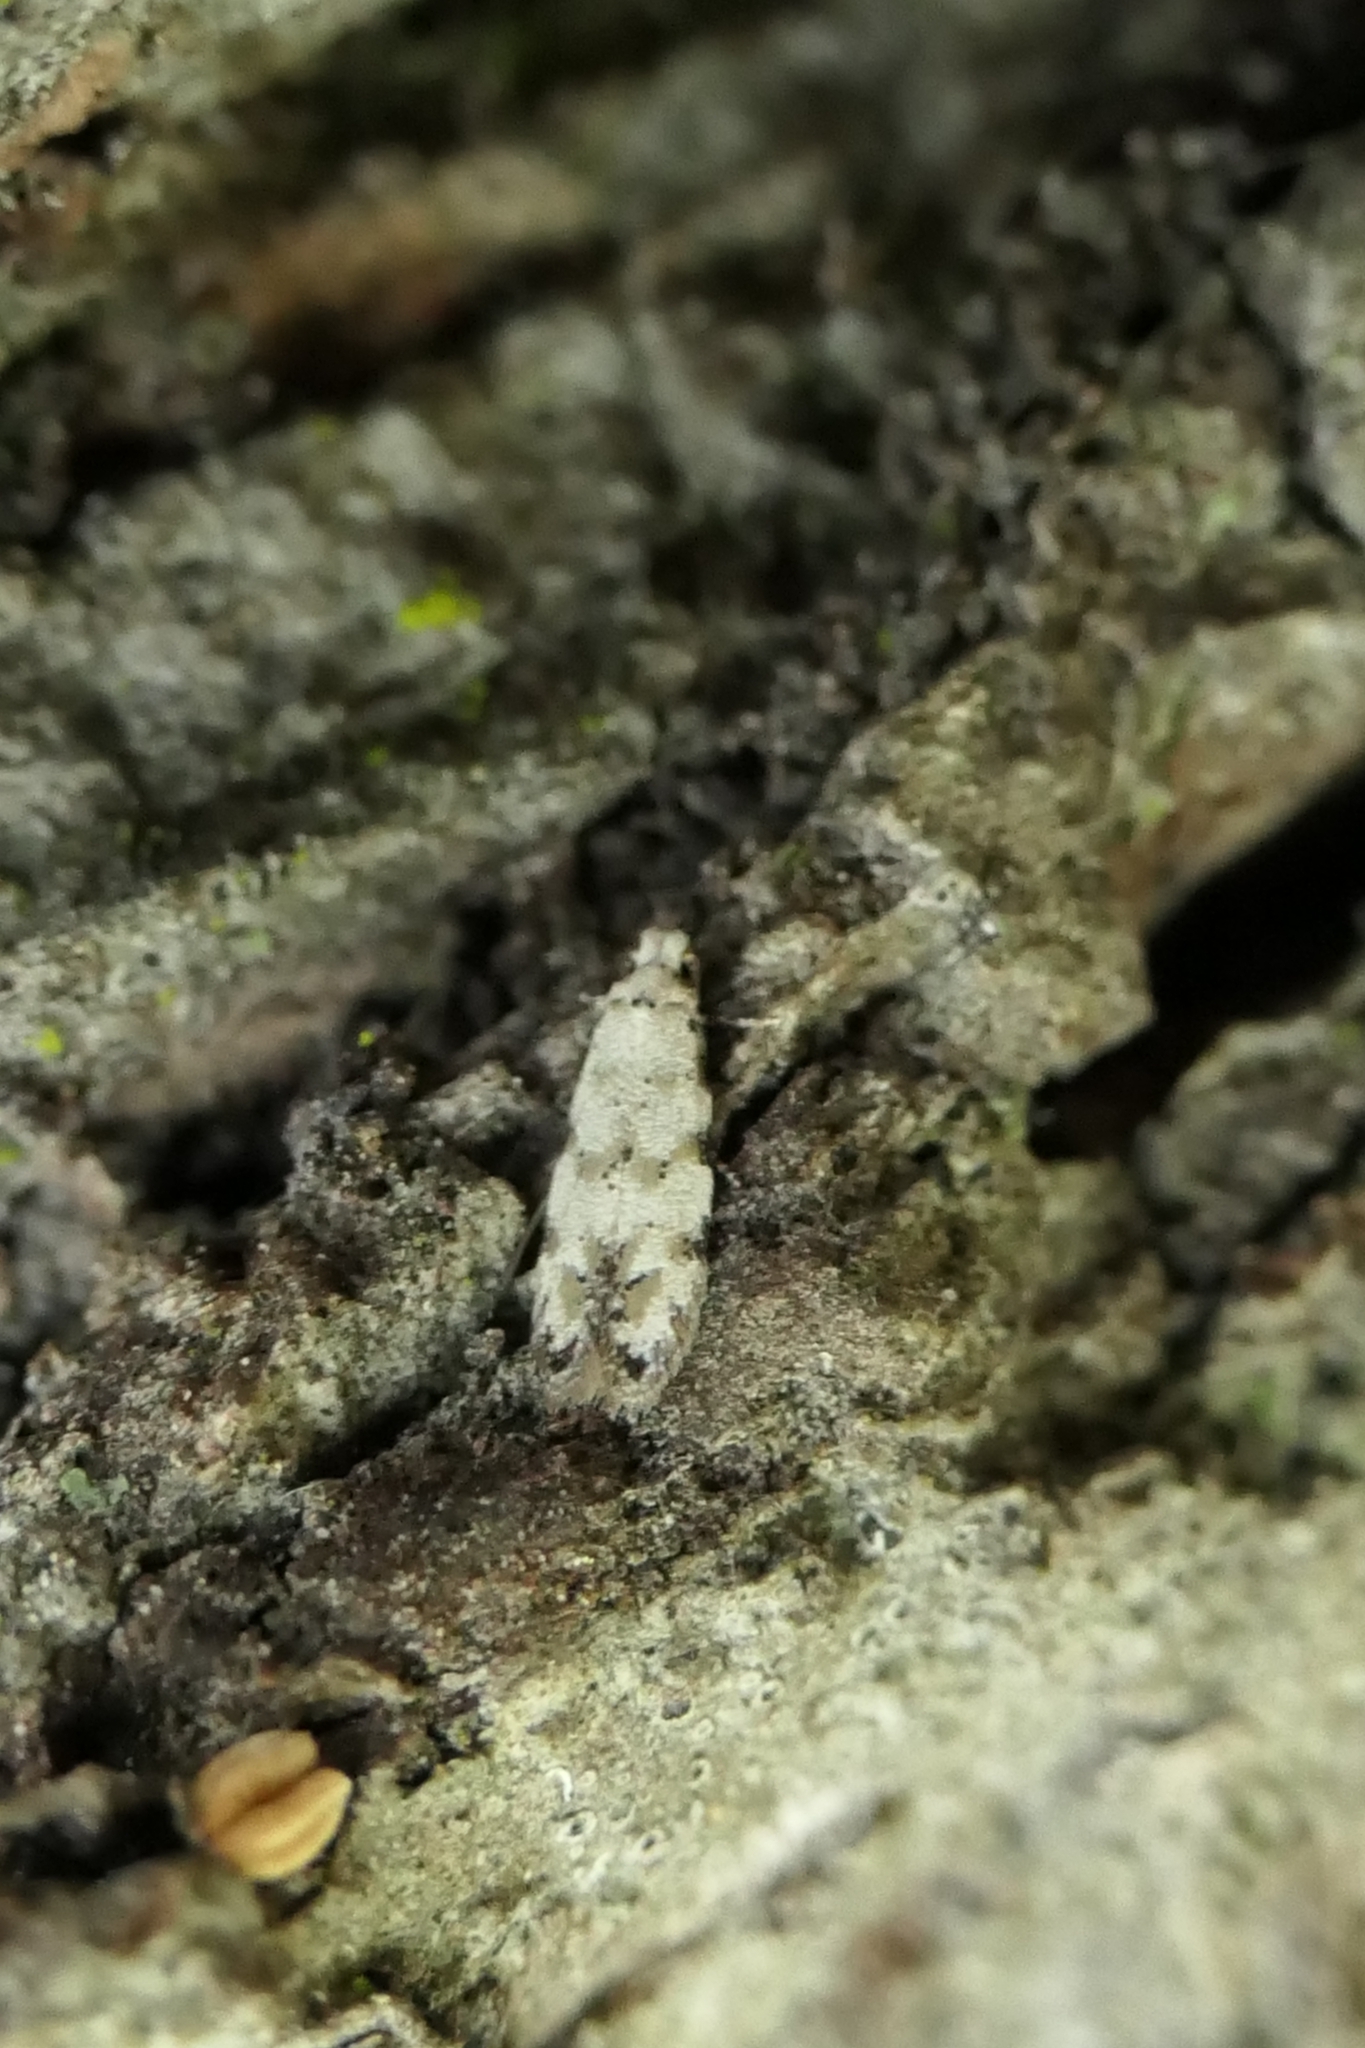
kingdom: Animalia
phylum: Arthropoda
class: Insecta
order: Lepidoptera
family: Tineidae
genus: Crypsitricha
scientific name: Crypsitricha stereota
